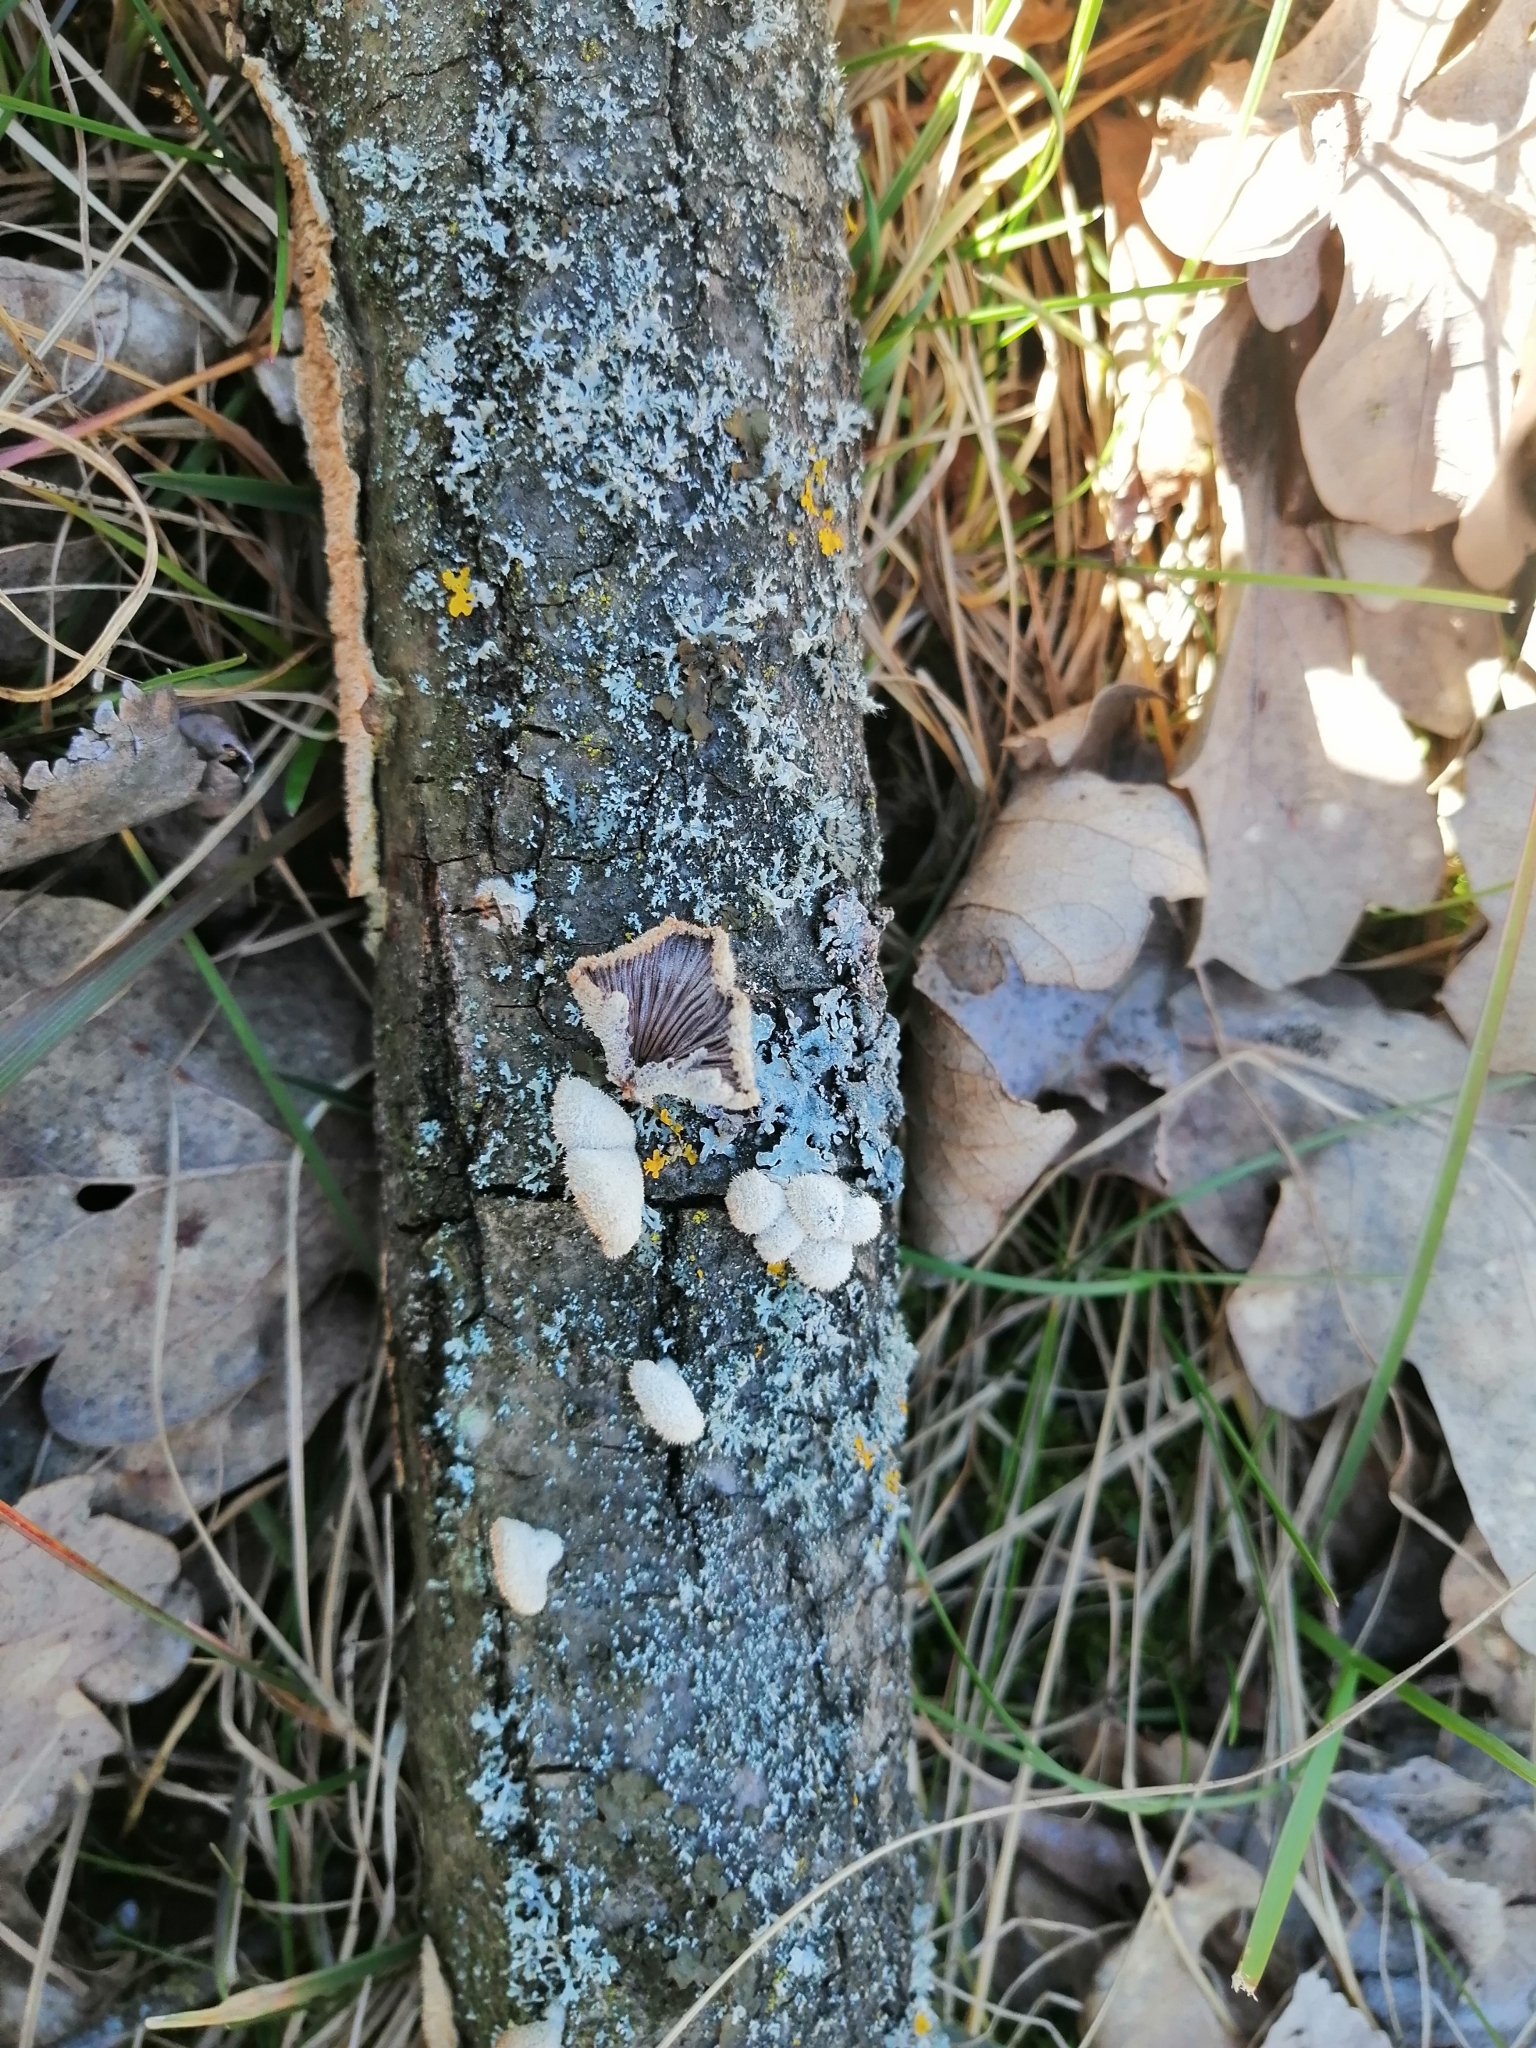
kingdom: Fungi
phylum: Basidiomycota
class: Agaricomycetes
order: Agaricales
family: Schizophyllaceae
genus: Schizophyllum
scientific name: Schizophyllum commune
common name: Common porecrust
